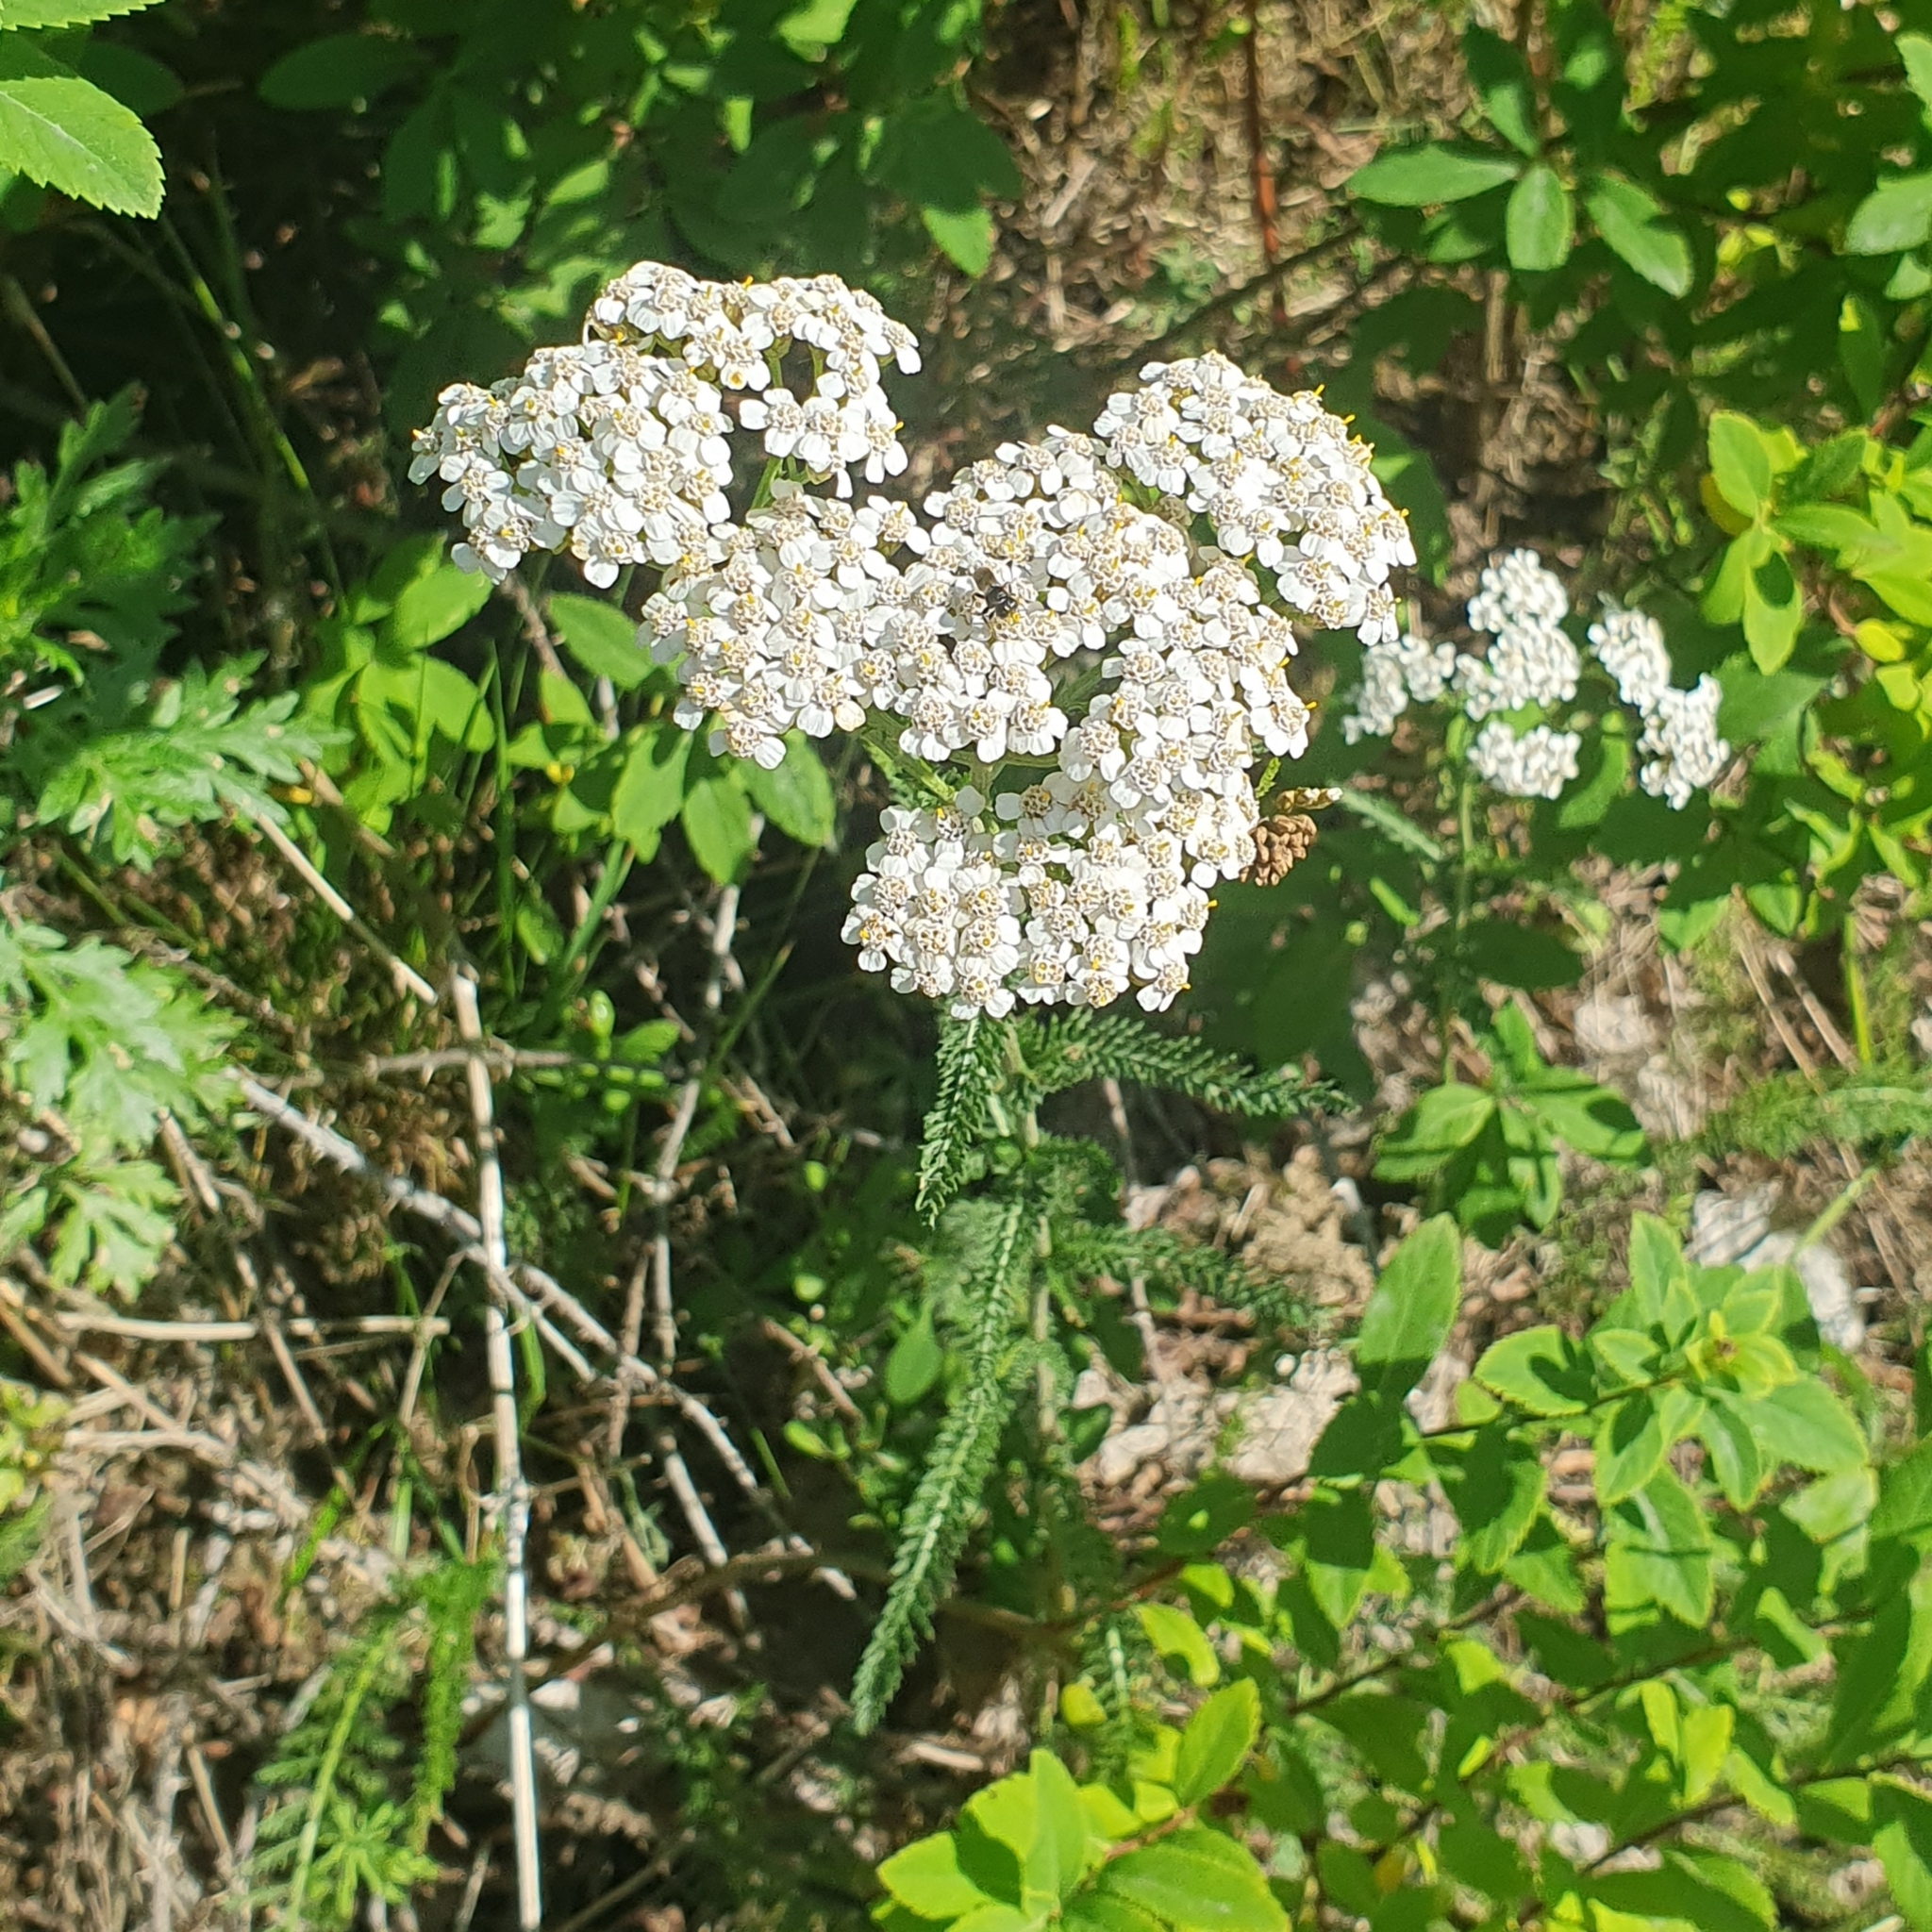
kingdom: Plantae
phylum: Tracheophyta
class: Magnoliopsida
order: Asterales
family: Asteraceae
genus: Achillea
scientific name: Achillea millefolium
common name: Yarrow
